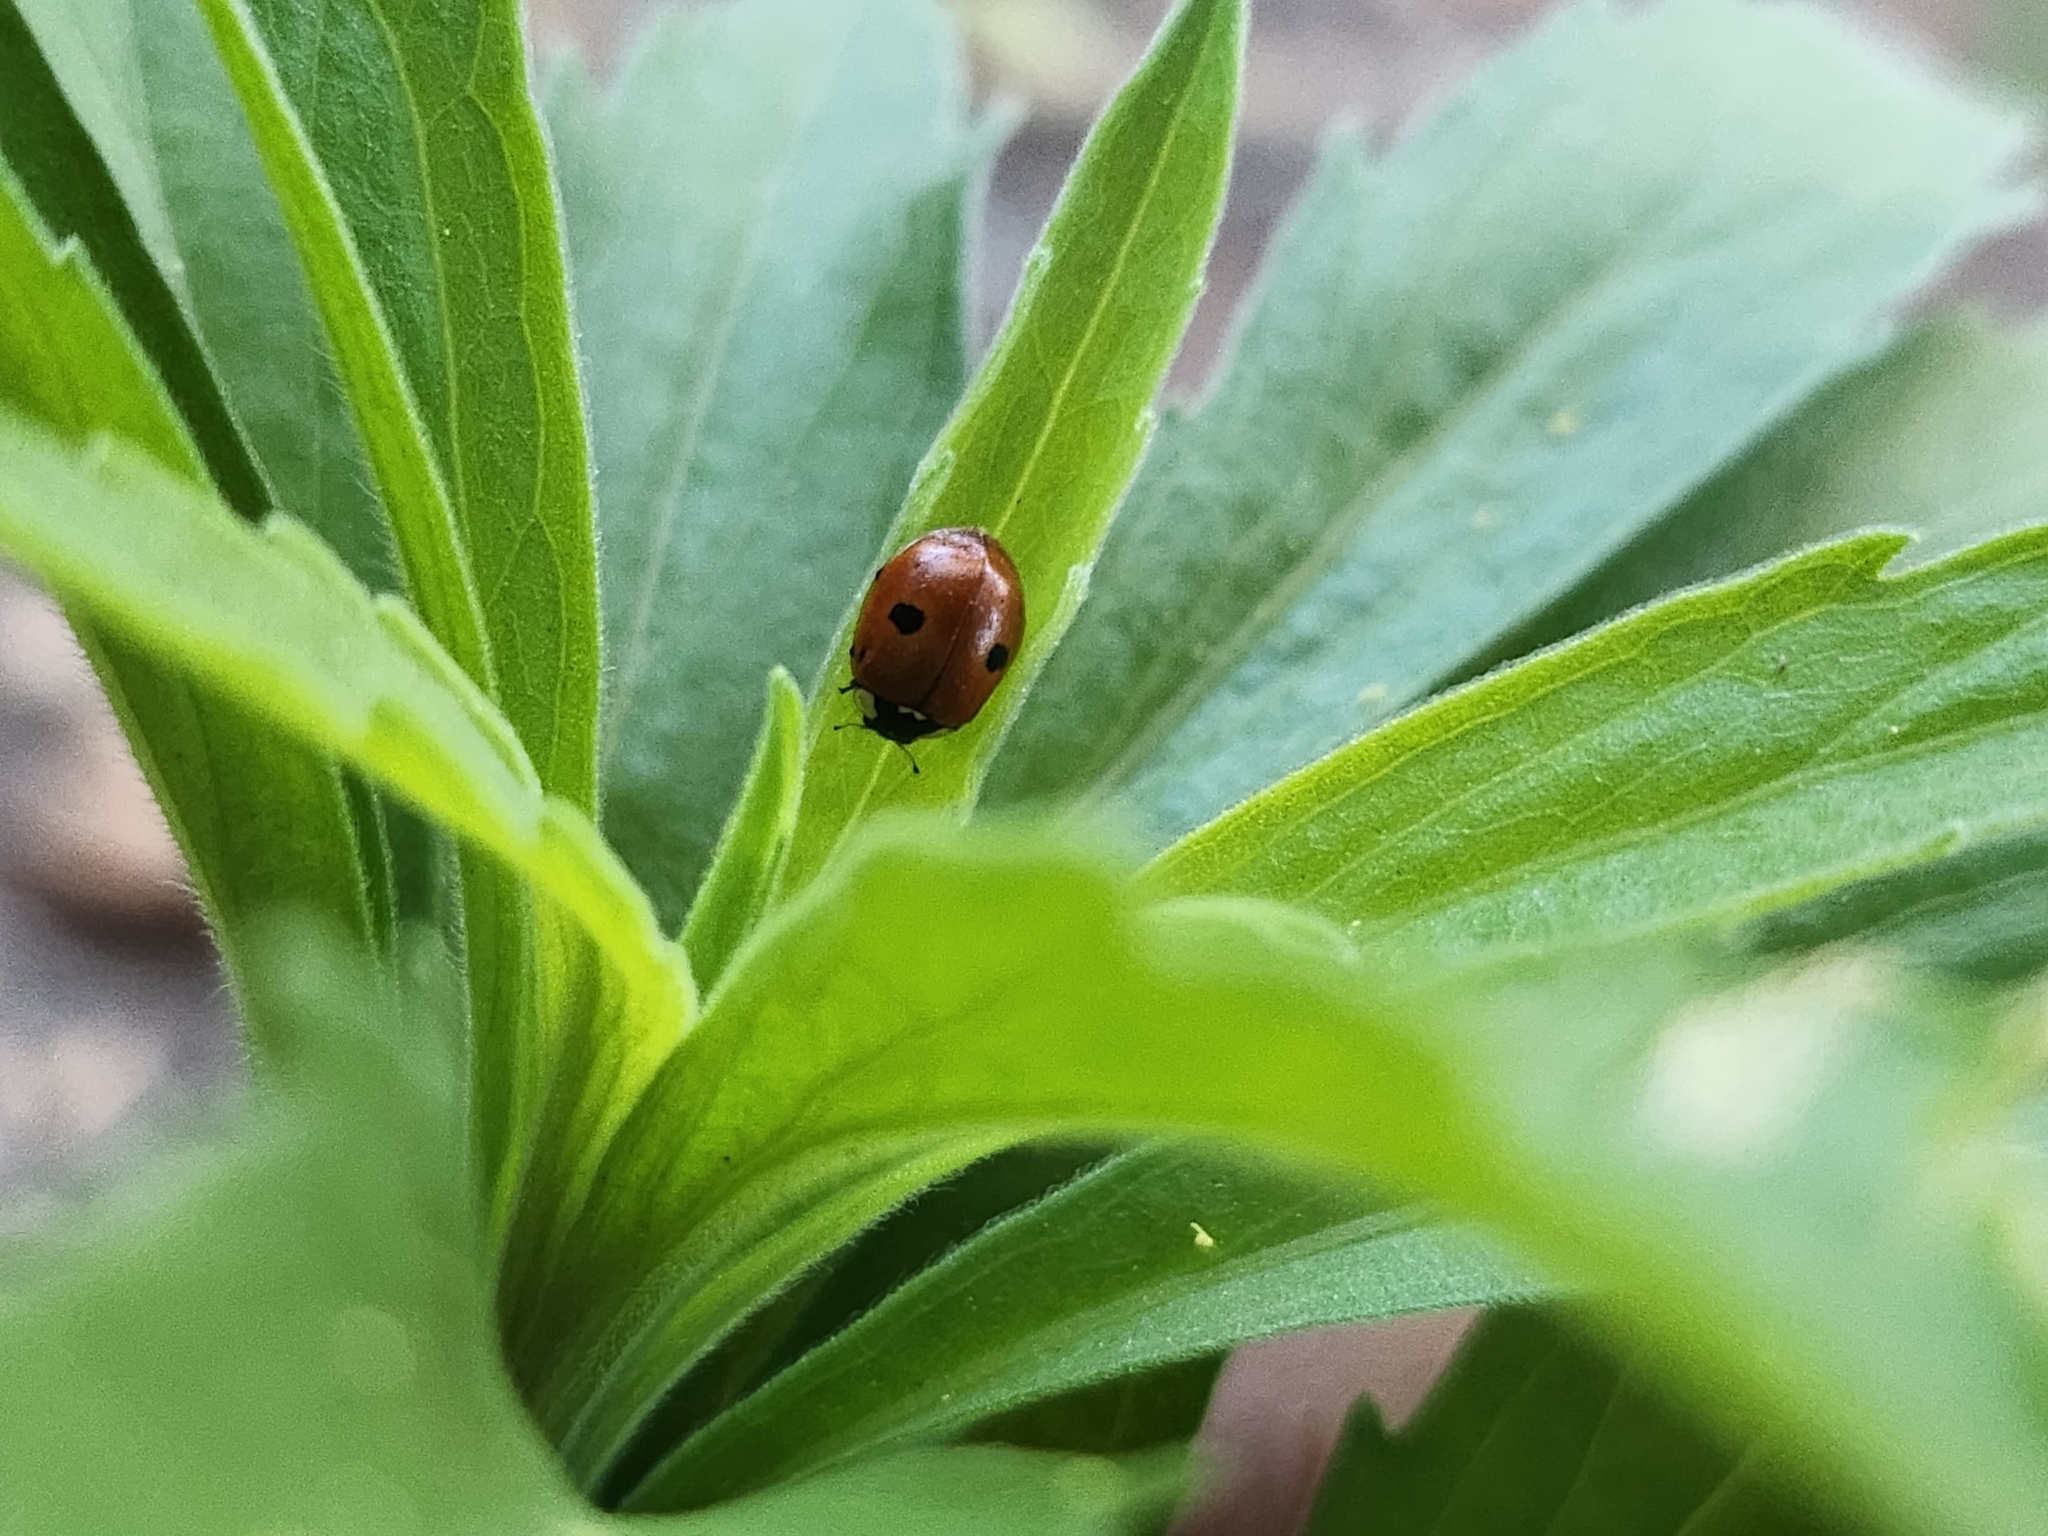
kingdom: Animalia
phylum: Arthropoda
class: Insecta
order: Coleoptera
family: Coccinellidae
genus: Adalia
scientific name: Adalia bipunctata
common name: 2-spot ladybird
